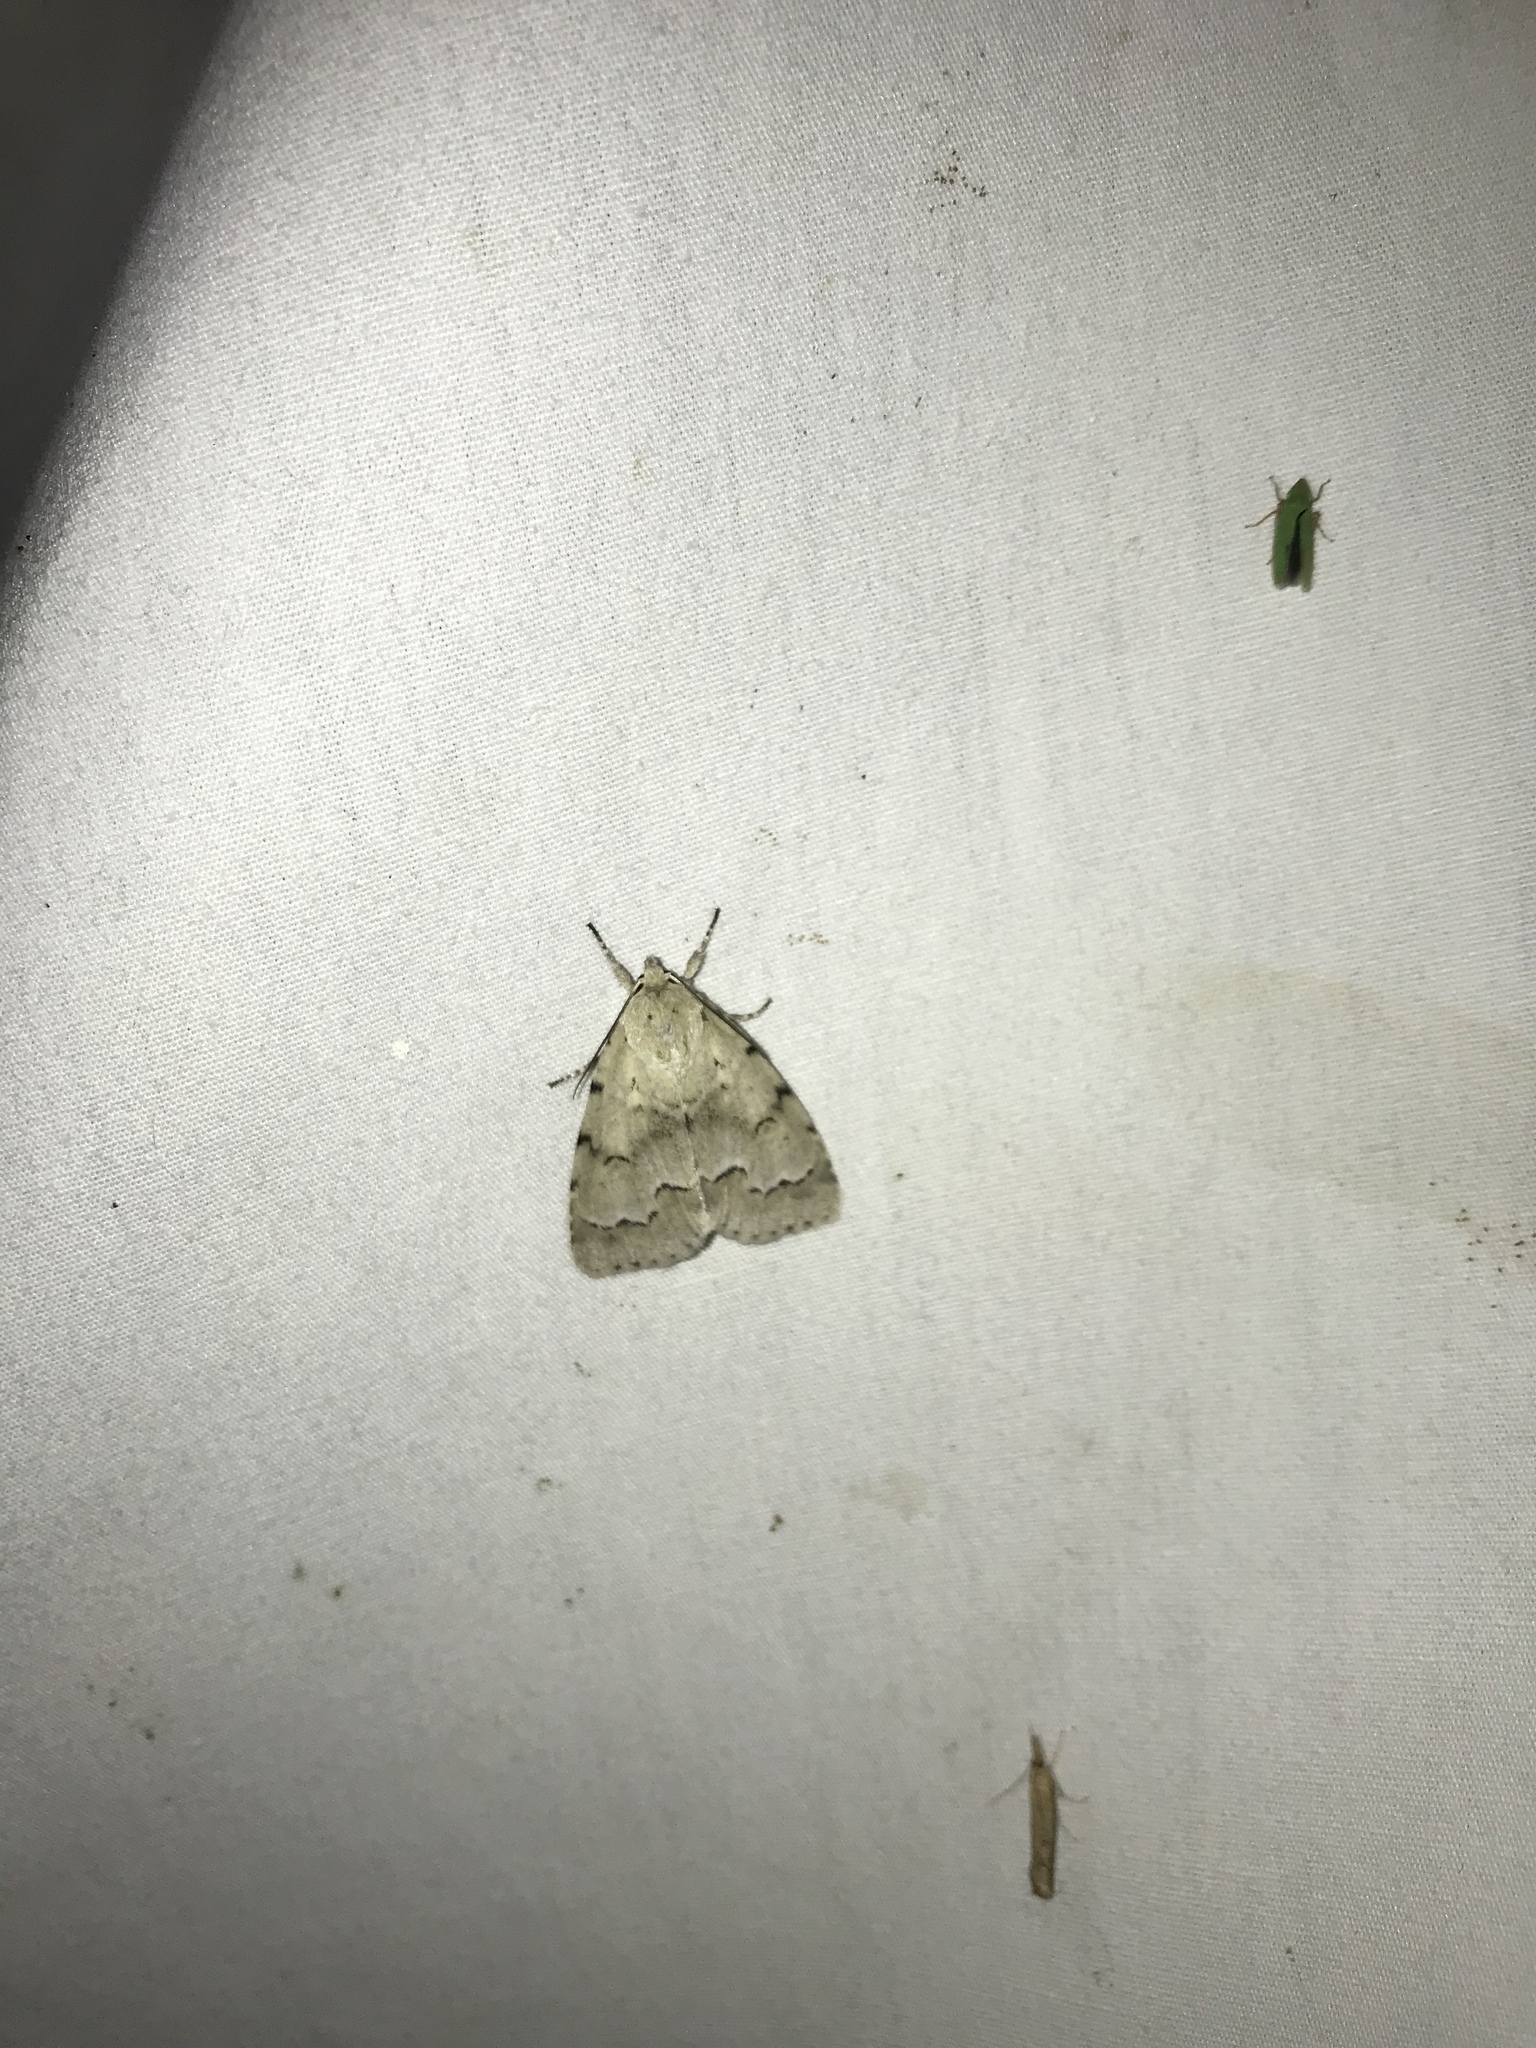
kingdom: Animalia
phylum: Arthropoda
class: Insecta
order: Lepidoptera
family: Noctuidae
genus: Acronicta
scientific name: Acronicta innotata
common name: Unmarked dagger
